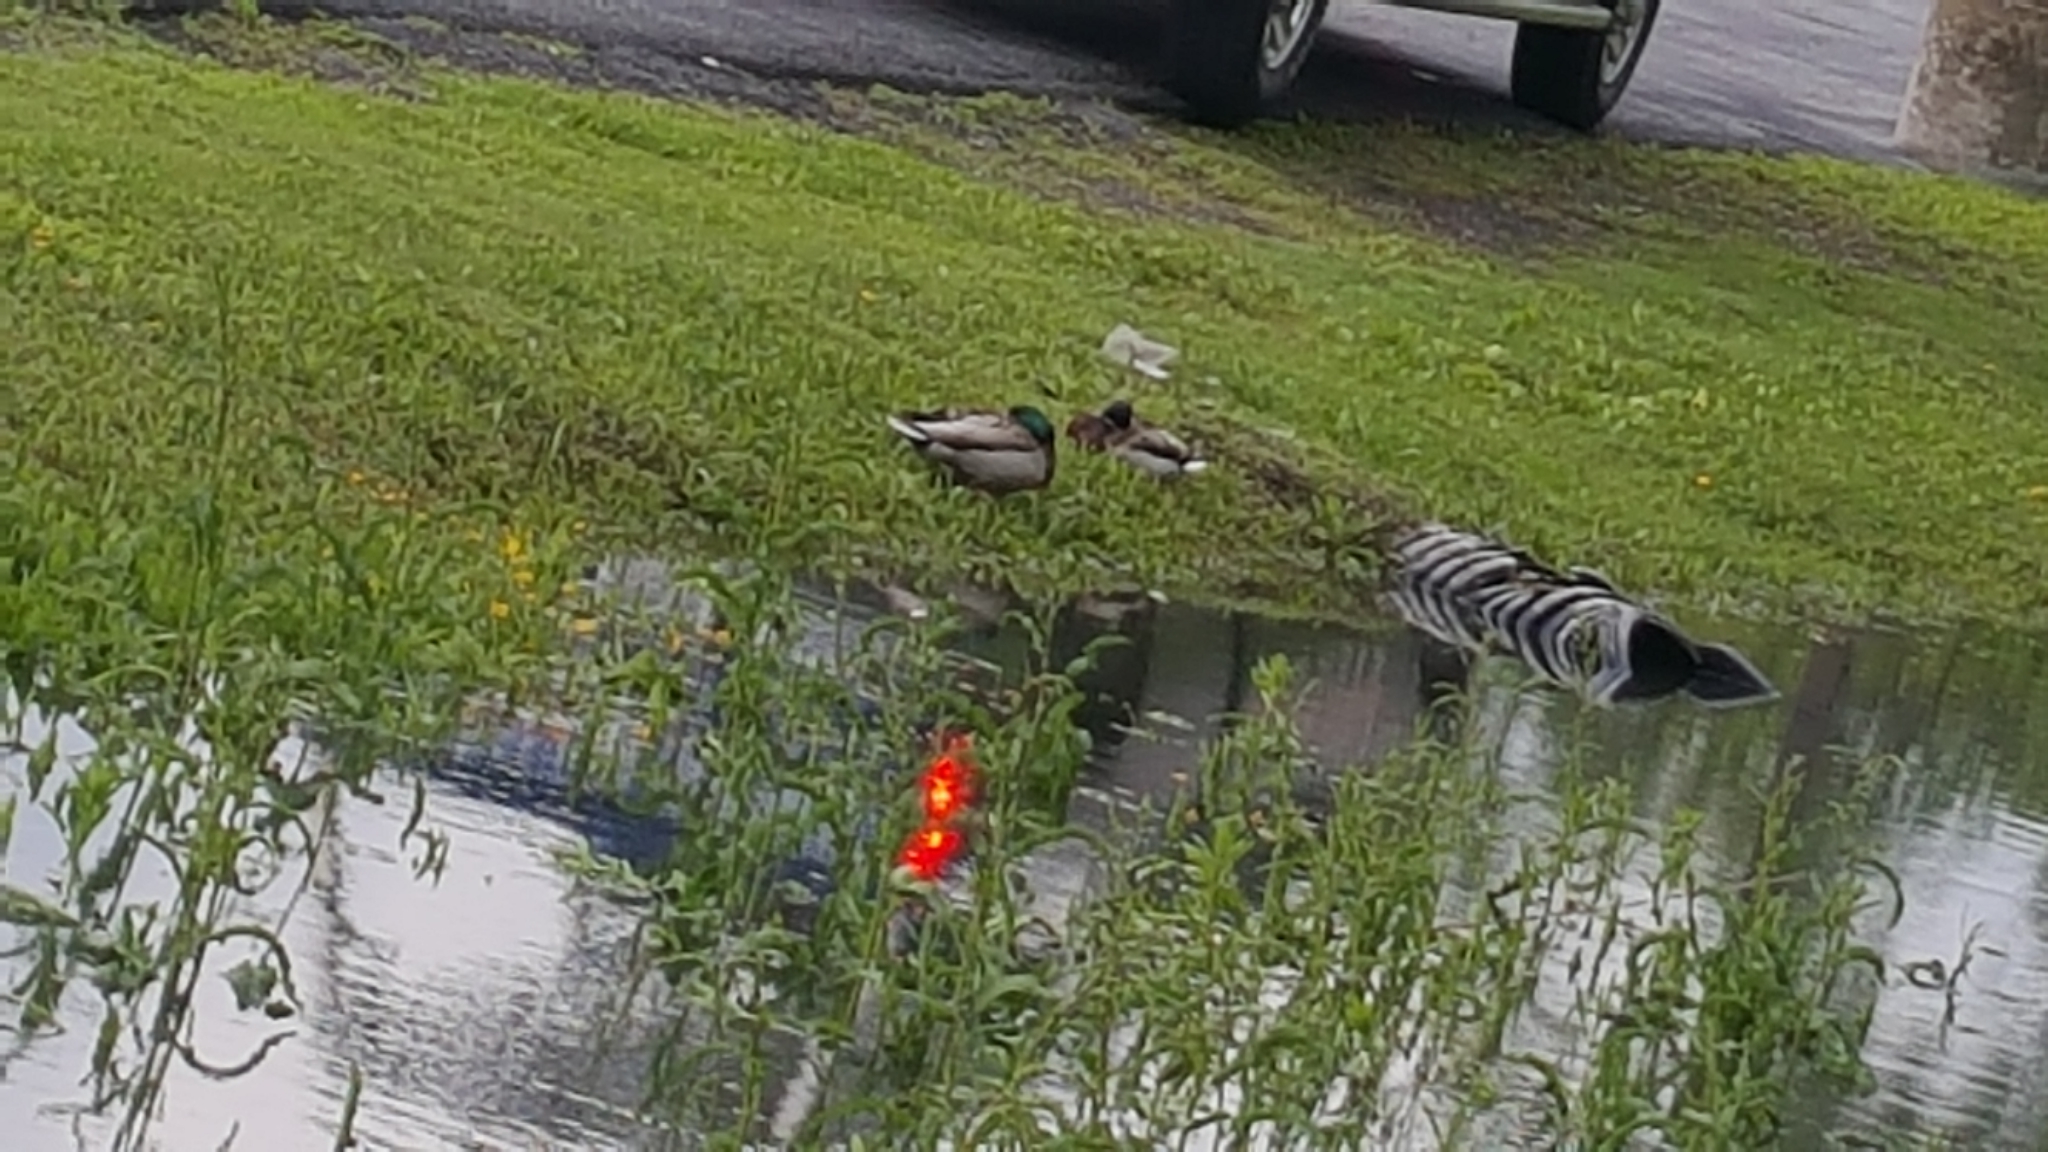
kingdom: Animalia
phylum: Chordata
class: Aves
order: Anseriformes
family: Anatidae
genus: Anas
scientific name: Anas platyrhynchos
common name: Mallard
